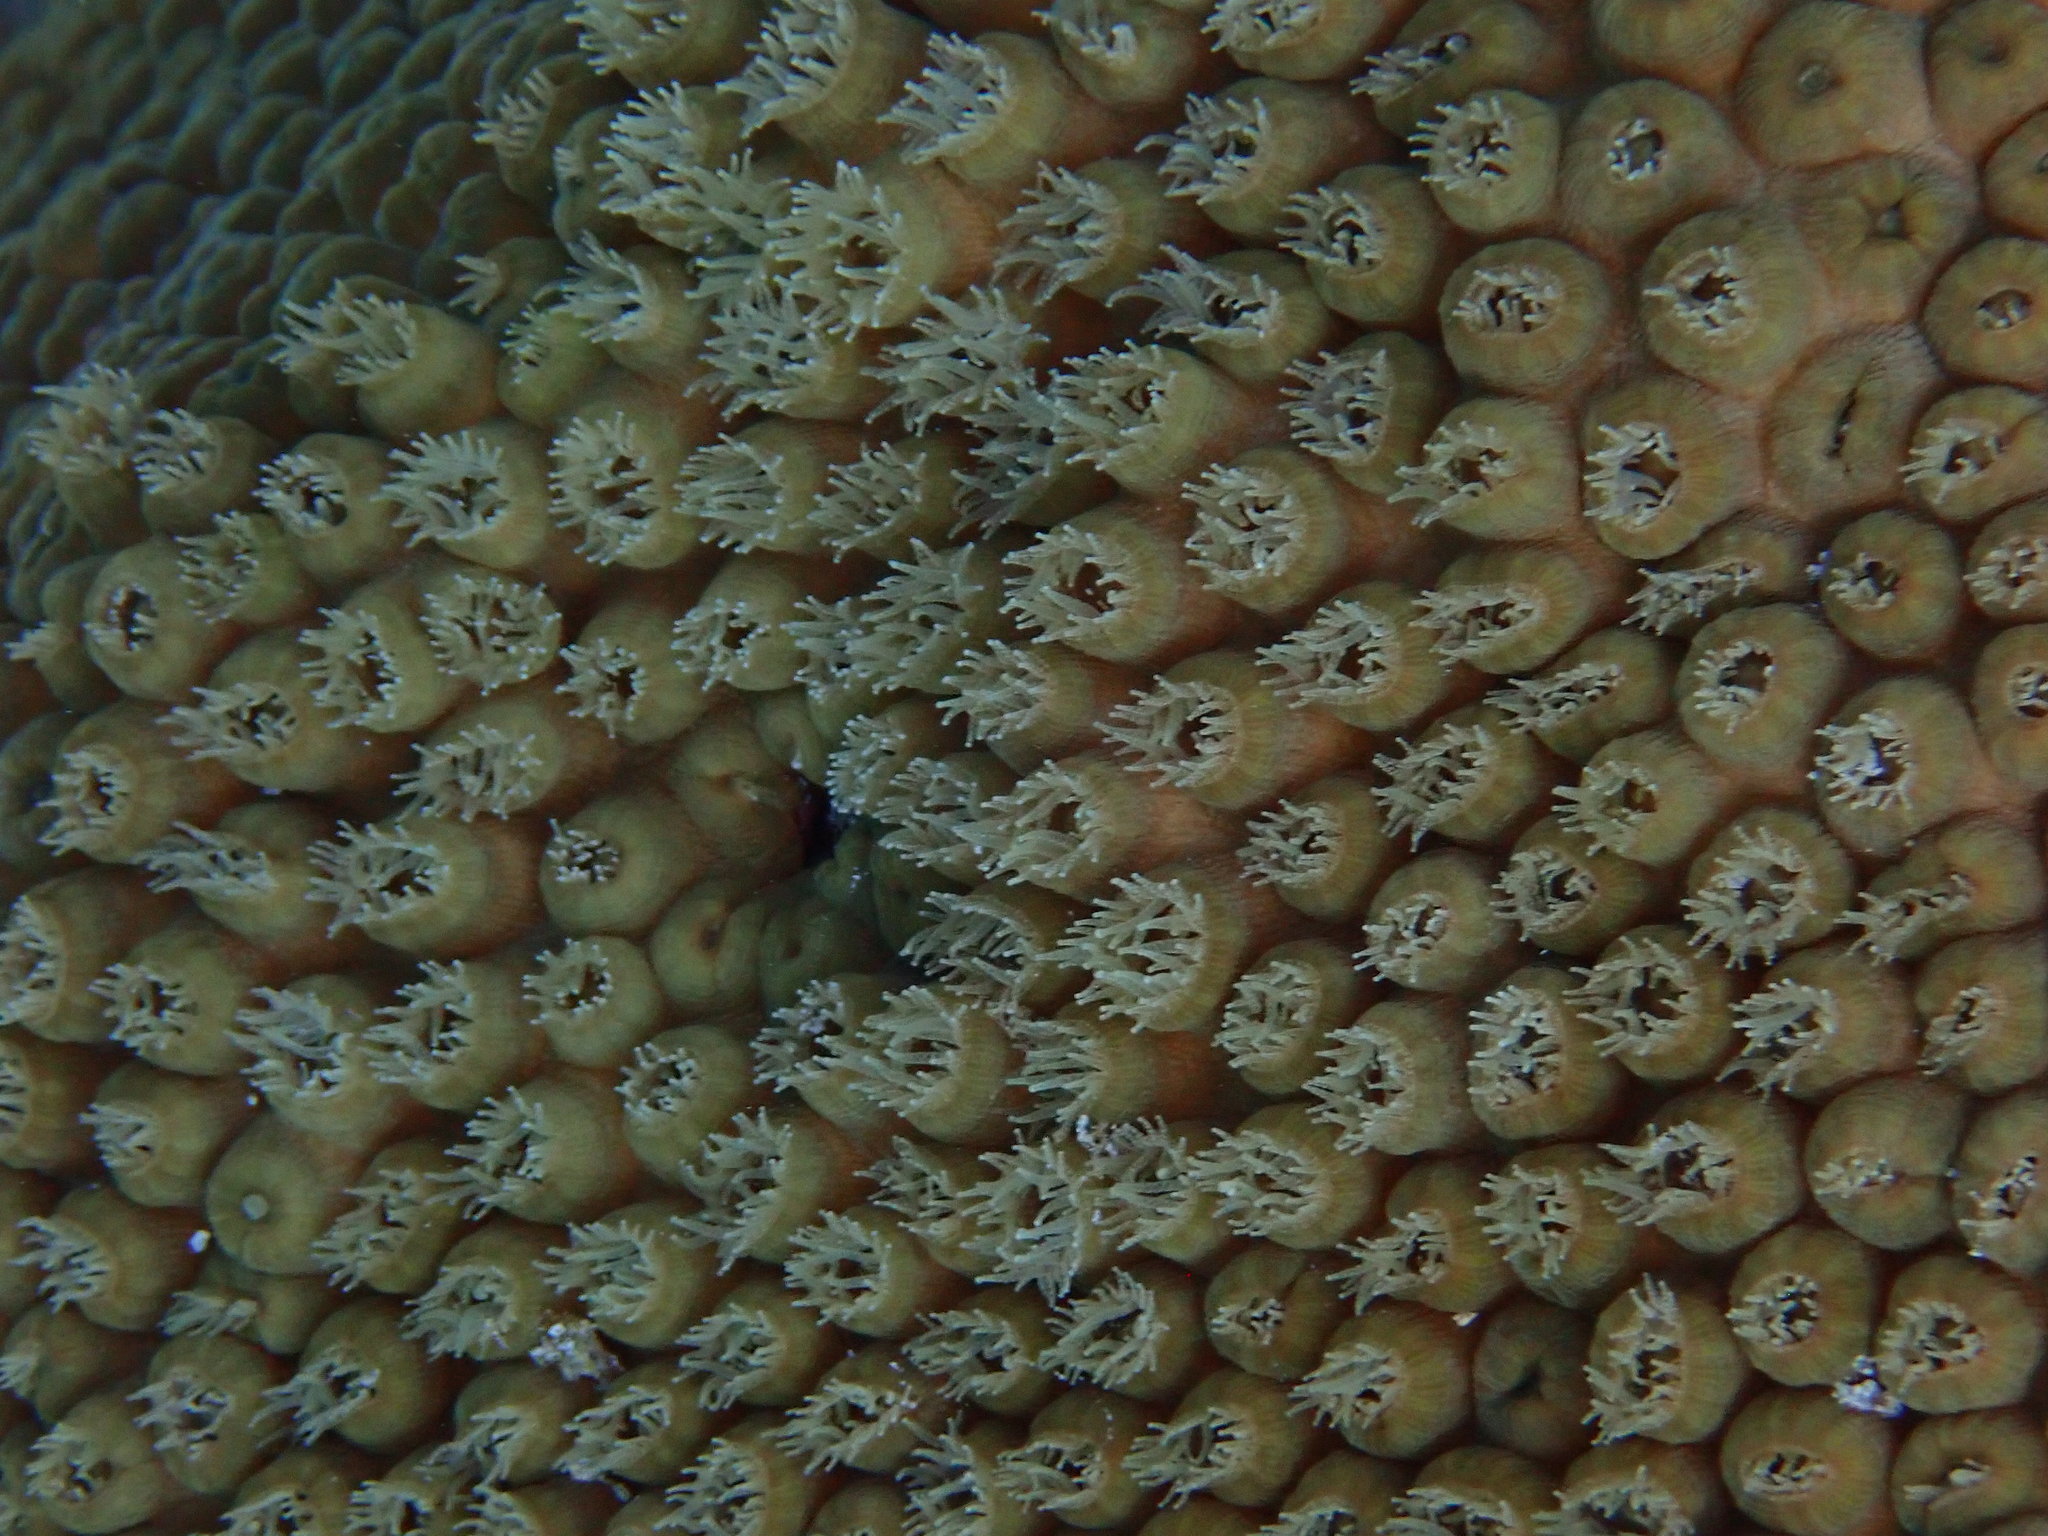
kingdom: Animalia
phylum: Cnidaria
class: Anthozoa
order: Scleractinia
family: Montastraeidae
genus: Montastraea
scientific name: Montastraea cavernosa
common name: Great star coral
